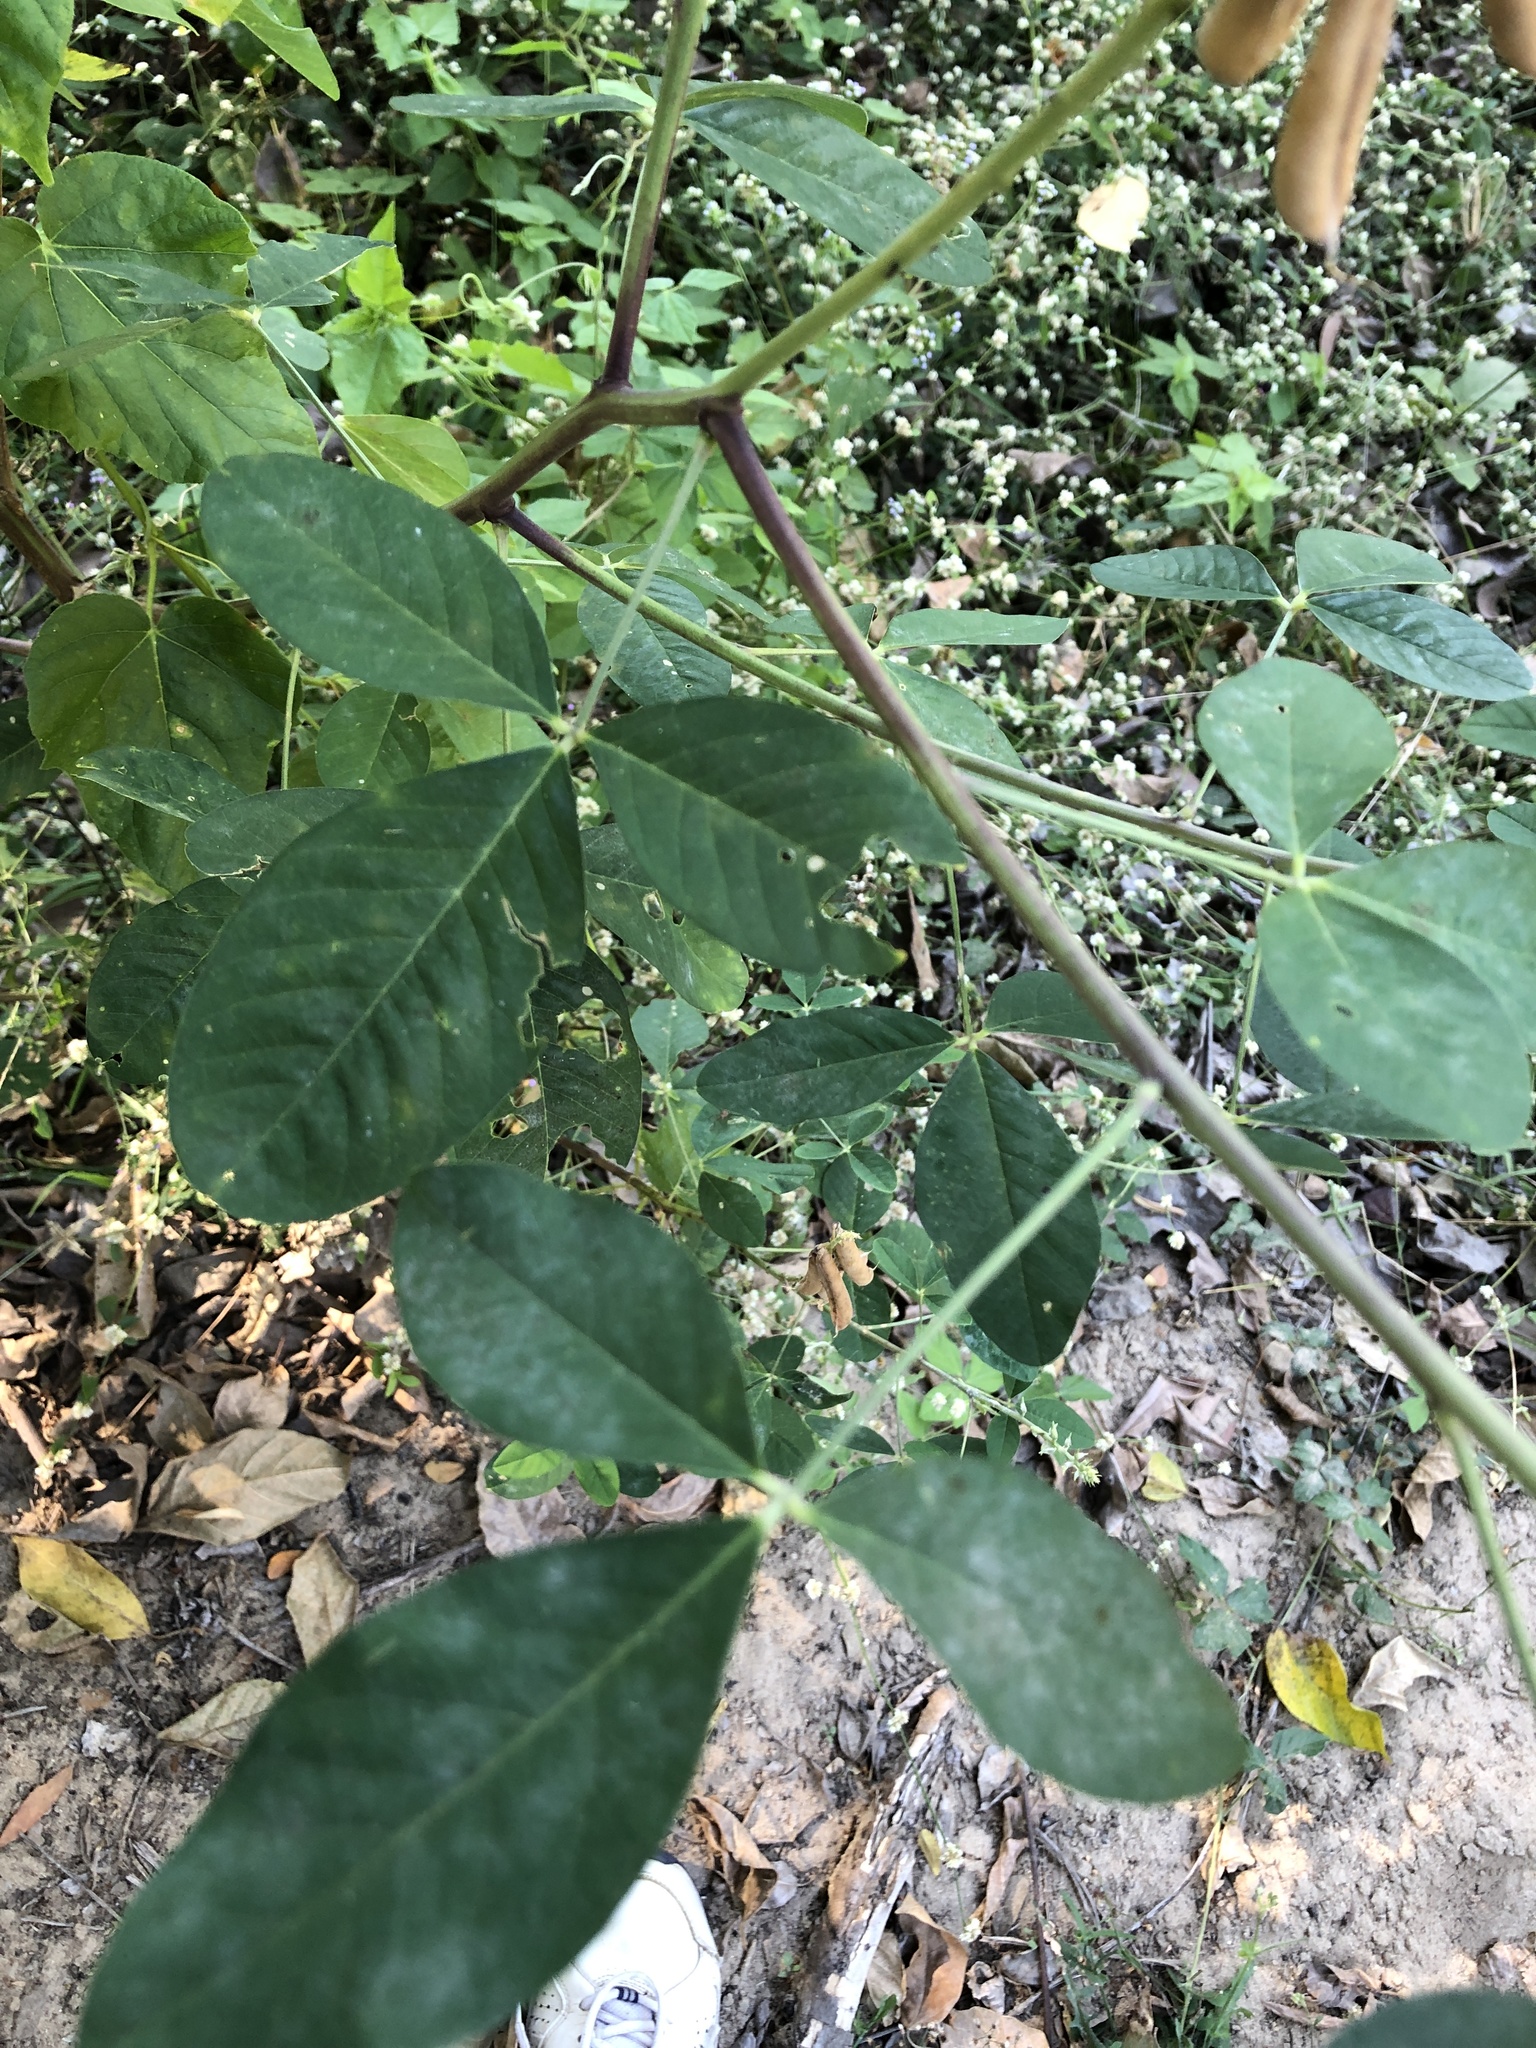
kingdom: Plantae
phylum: Tracheophyta
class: Magnoliopsida
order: Fabales
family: Fabaceae
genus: Crotalaria
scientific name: Crotalaria pallida
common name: Smooth rattlebox
